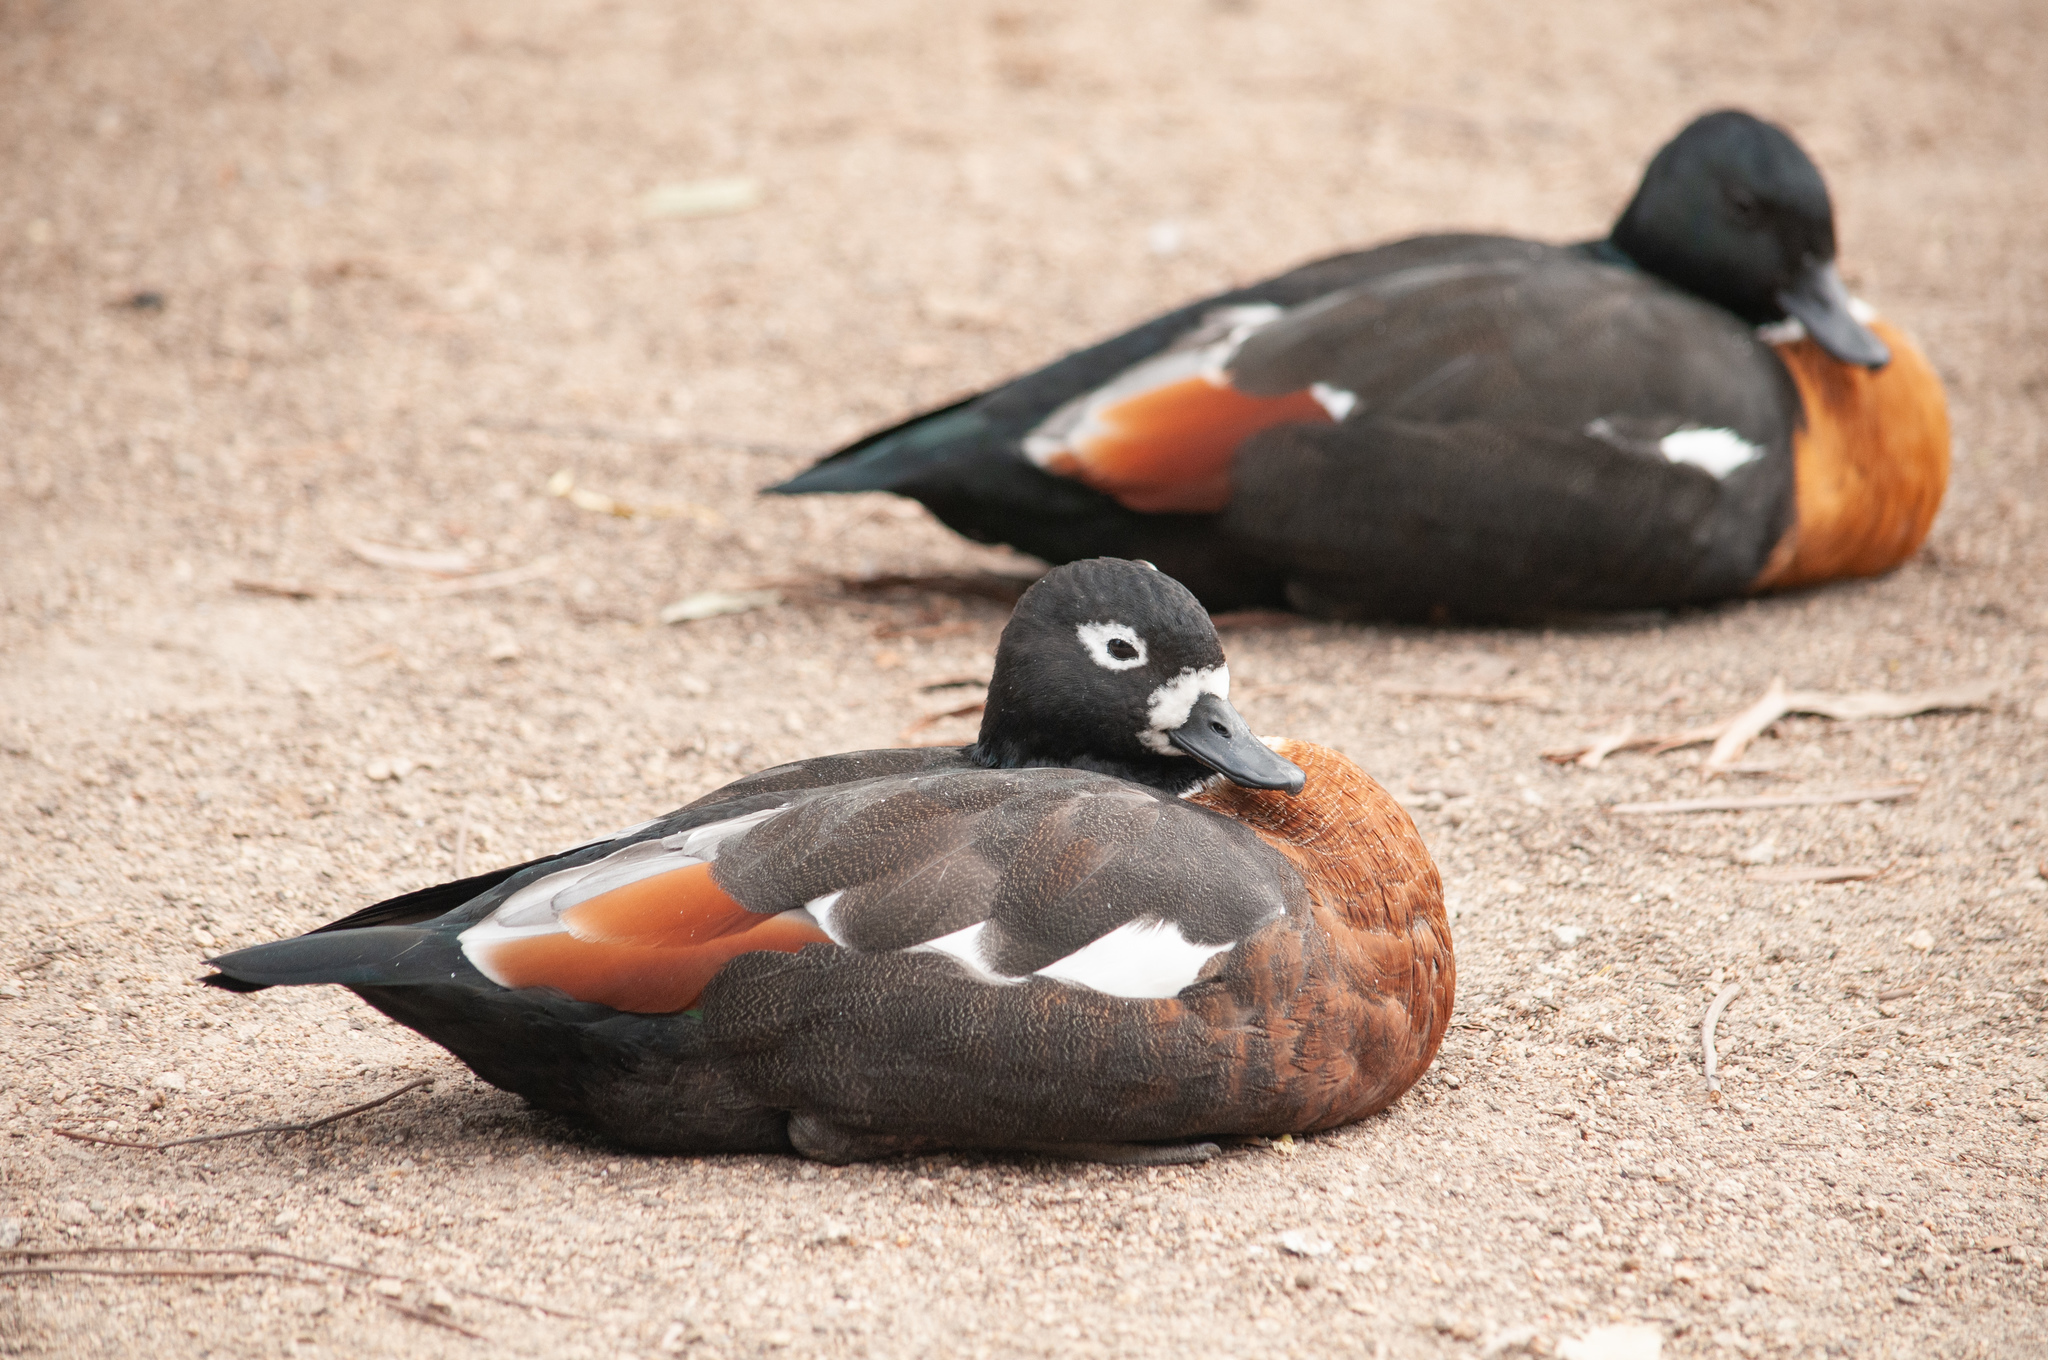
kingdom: Animalia
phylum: Chordata
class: Aves
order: Anseriformes
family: Anatidae
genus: Tadorna
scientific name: Tadorna tadornoides
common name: Australian shelduck
